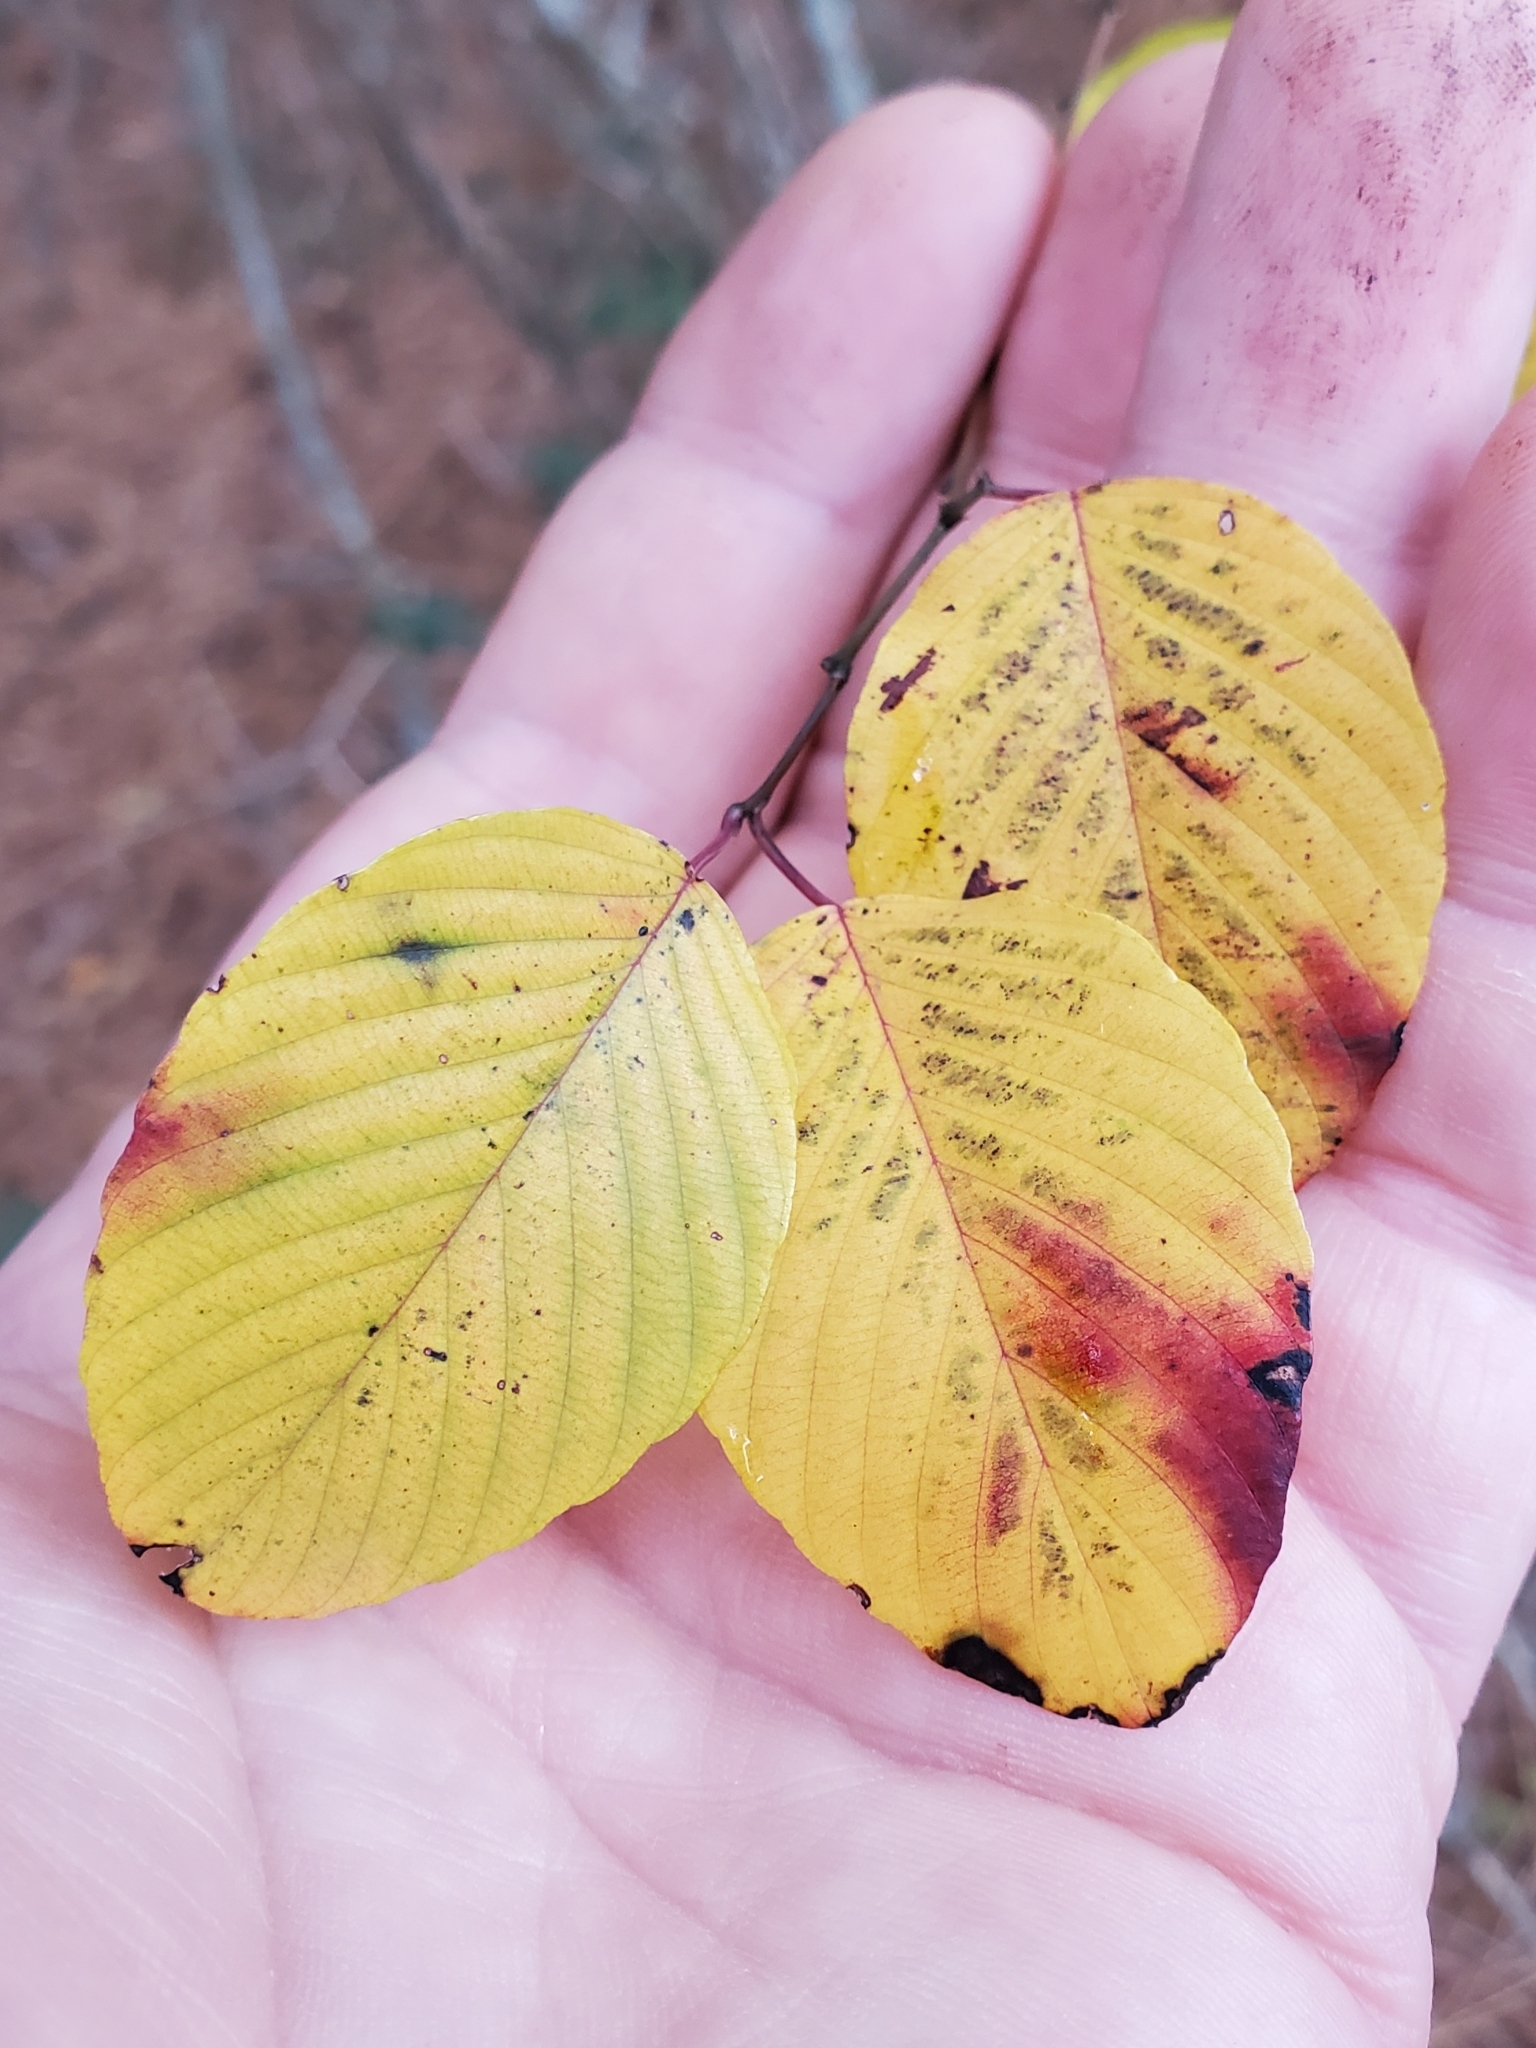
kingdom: Plantae
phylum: Tracheophyta
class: Magnoliopsida
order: Rosales
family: Rhamnaceae
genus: Berchemia
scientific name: Berchemia scandens
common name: Supplejack
